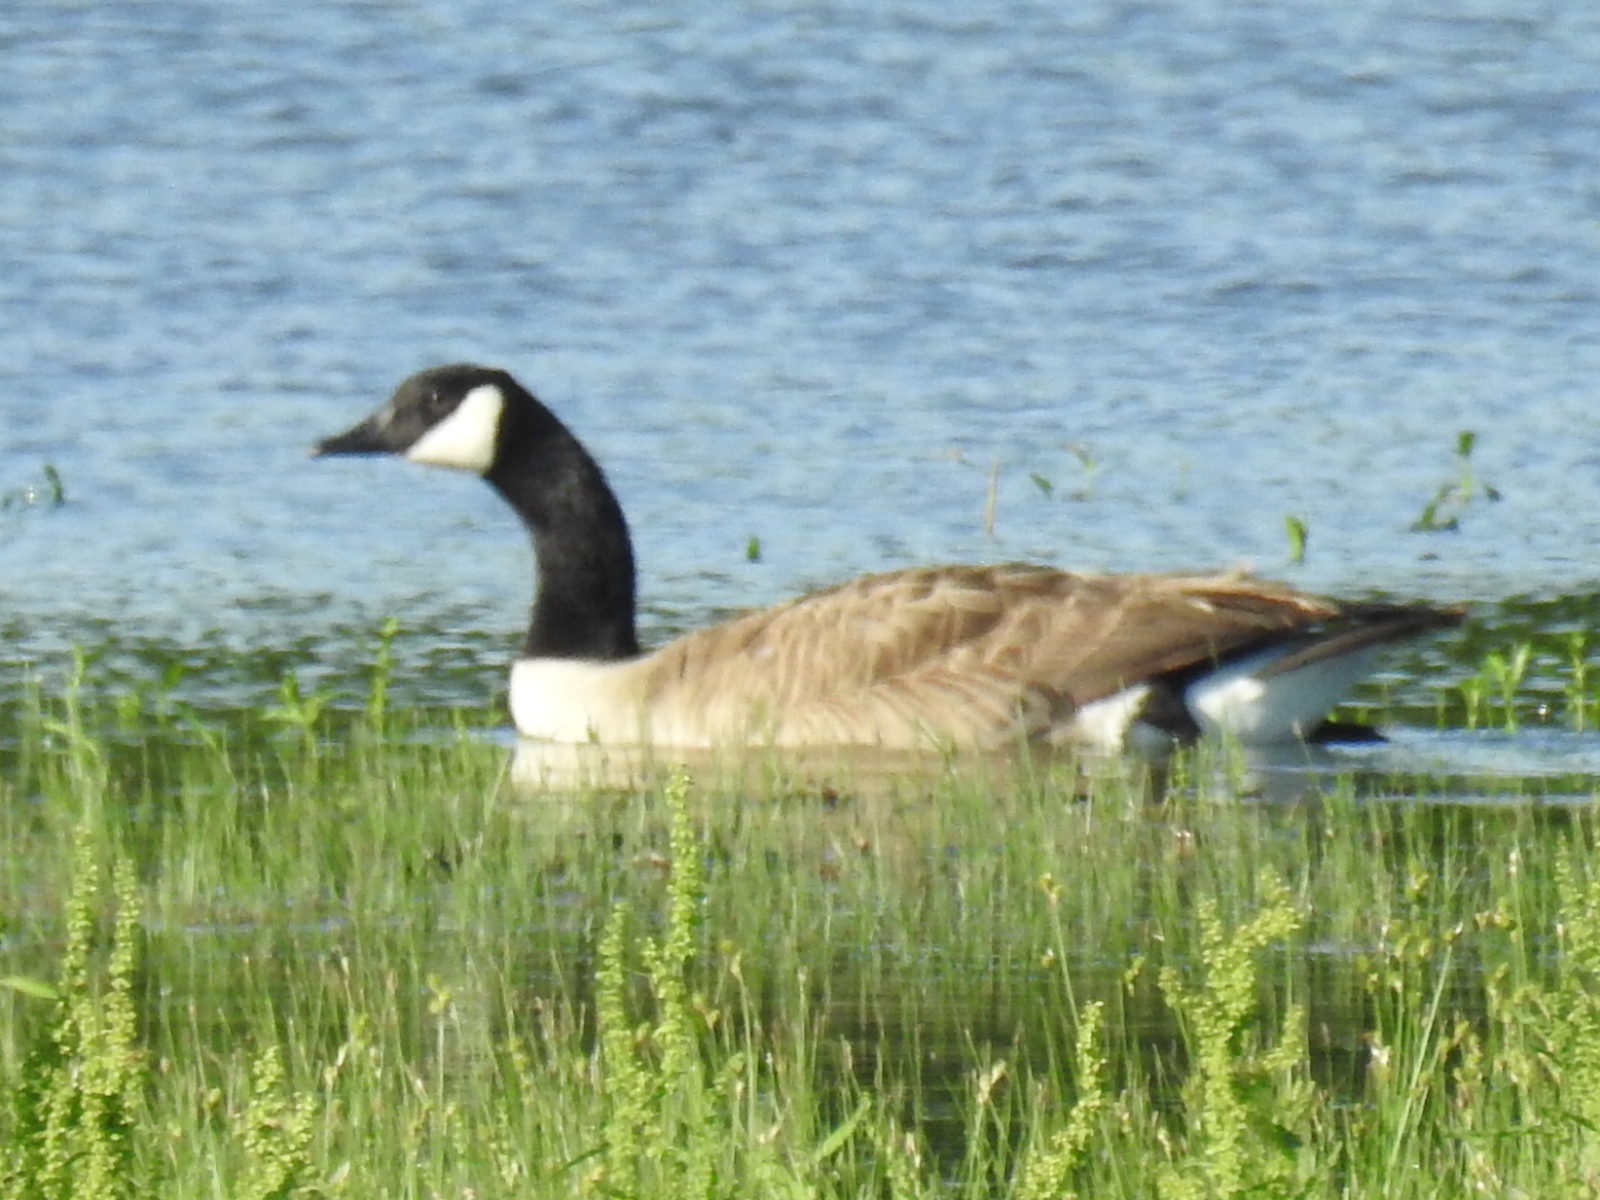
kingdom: Animalia
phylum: Chordata
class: Aves
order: Anseriformes
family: Anatidae
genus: Branta
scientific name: Branta canadensis
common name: Canada goose
